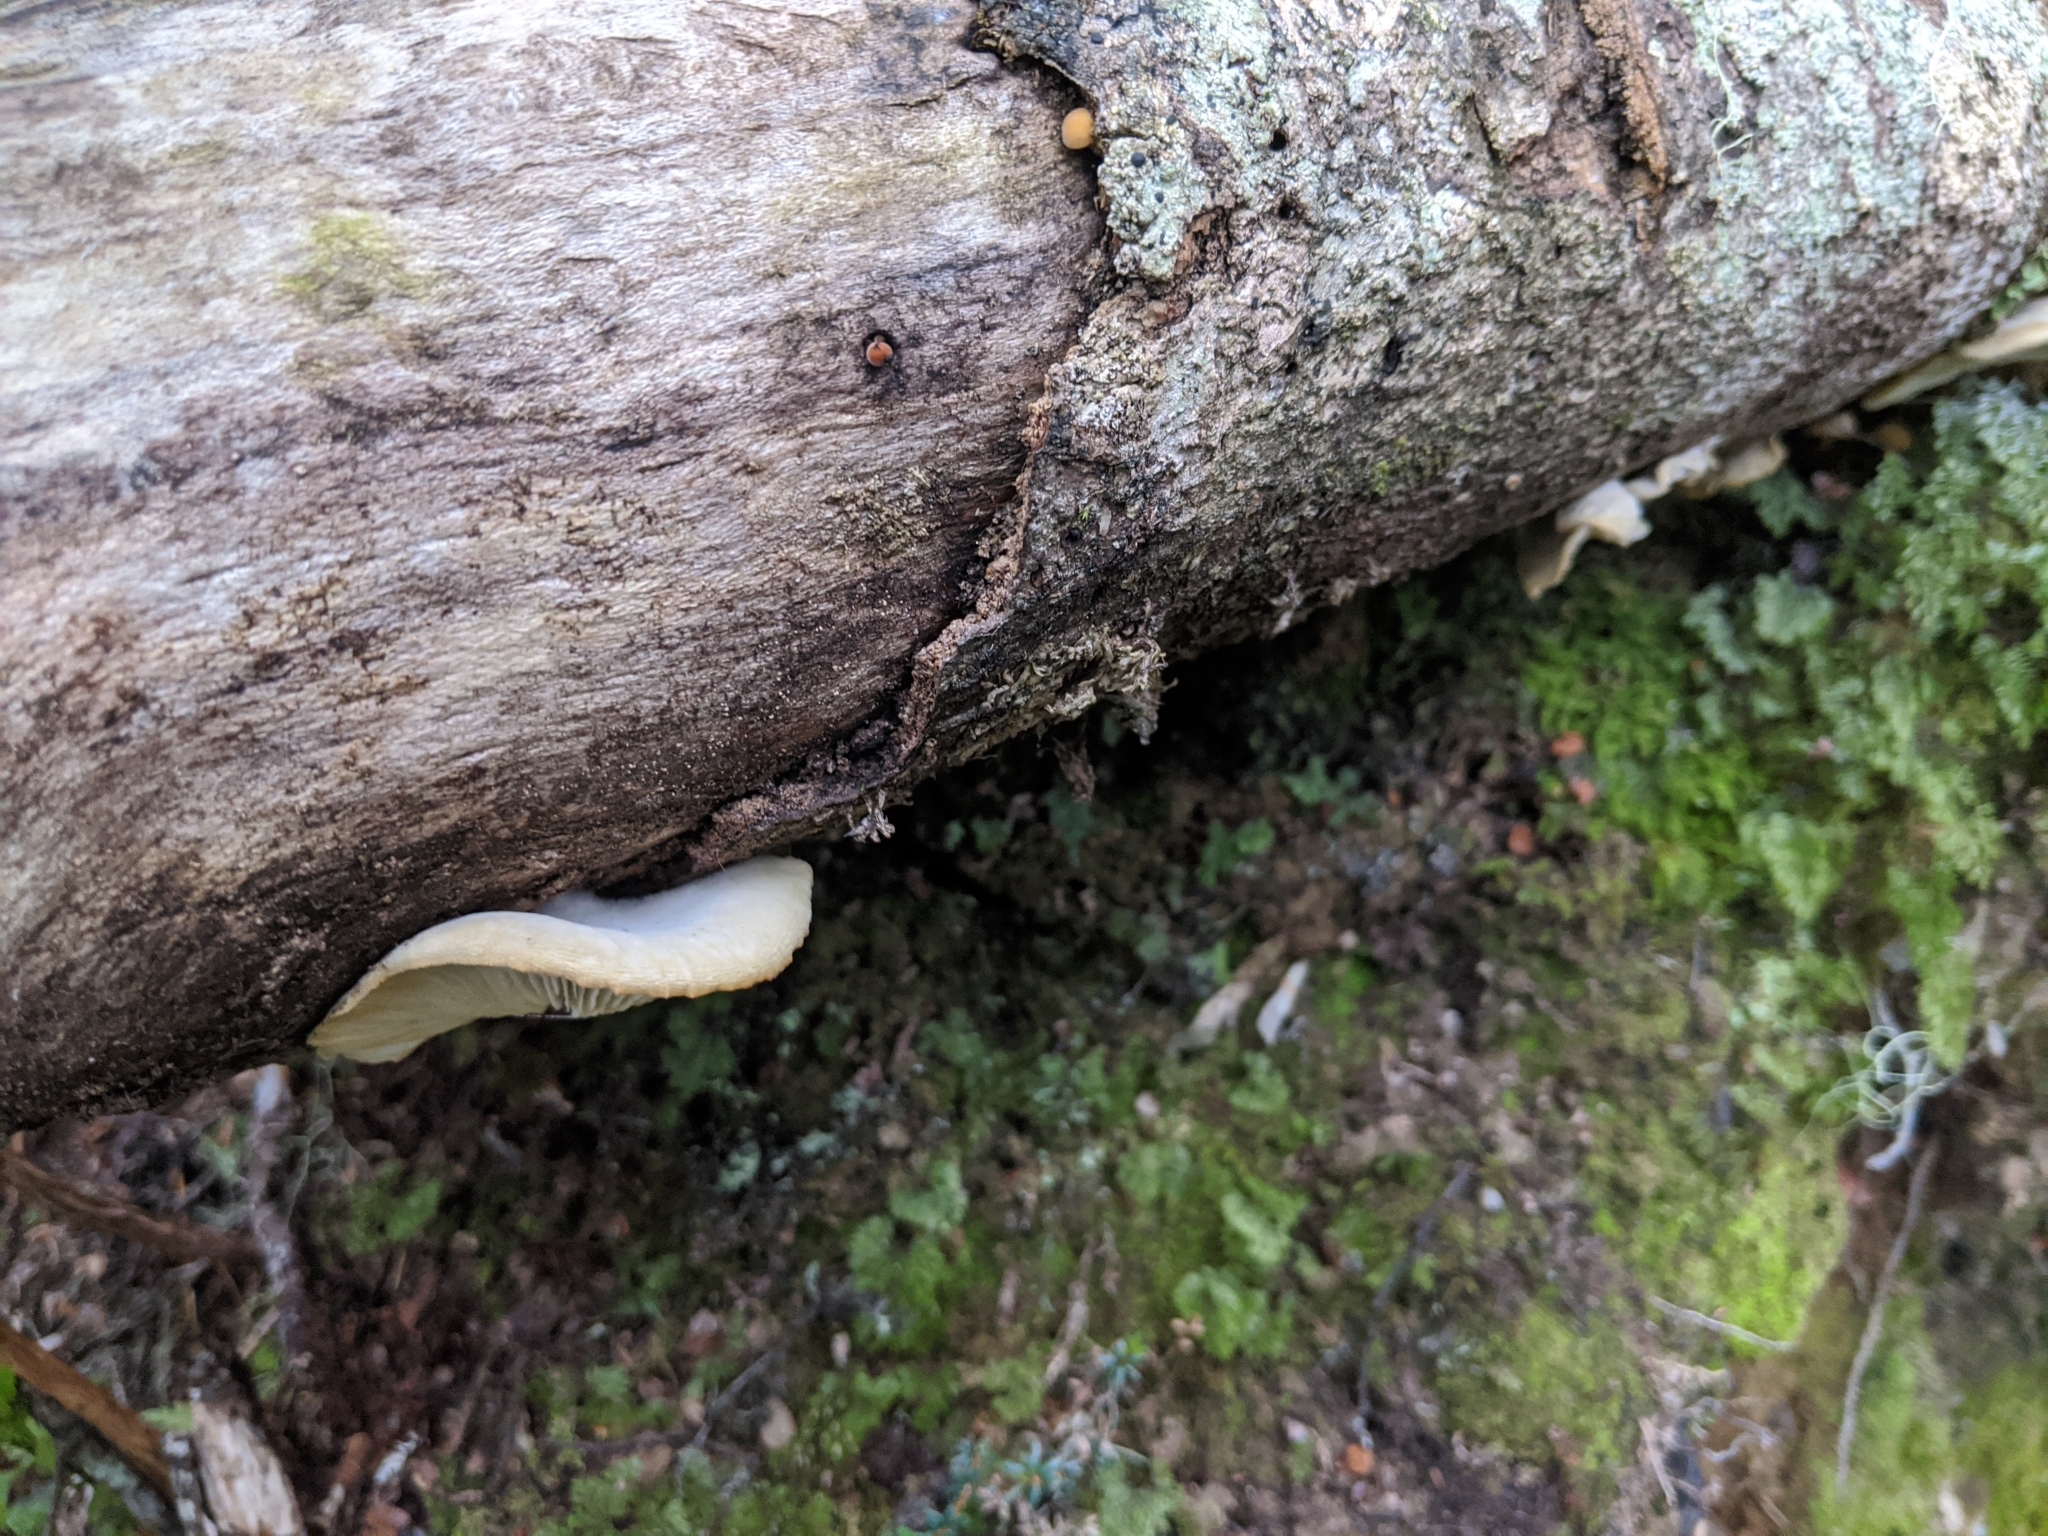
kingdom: Fungi
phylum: Basidiomycota
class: Agaricomycetes
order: Agaricales
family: Tricholomataceae
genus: Conchomyces
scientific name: Conchomyces bursiformis
